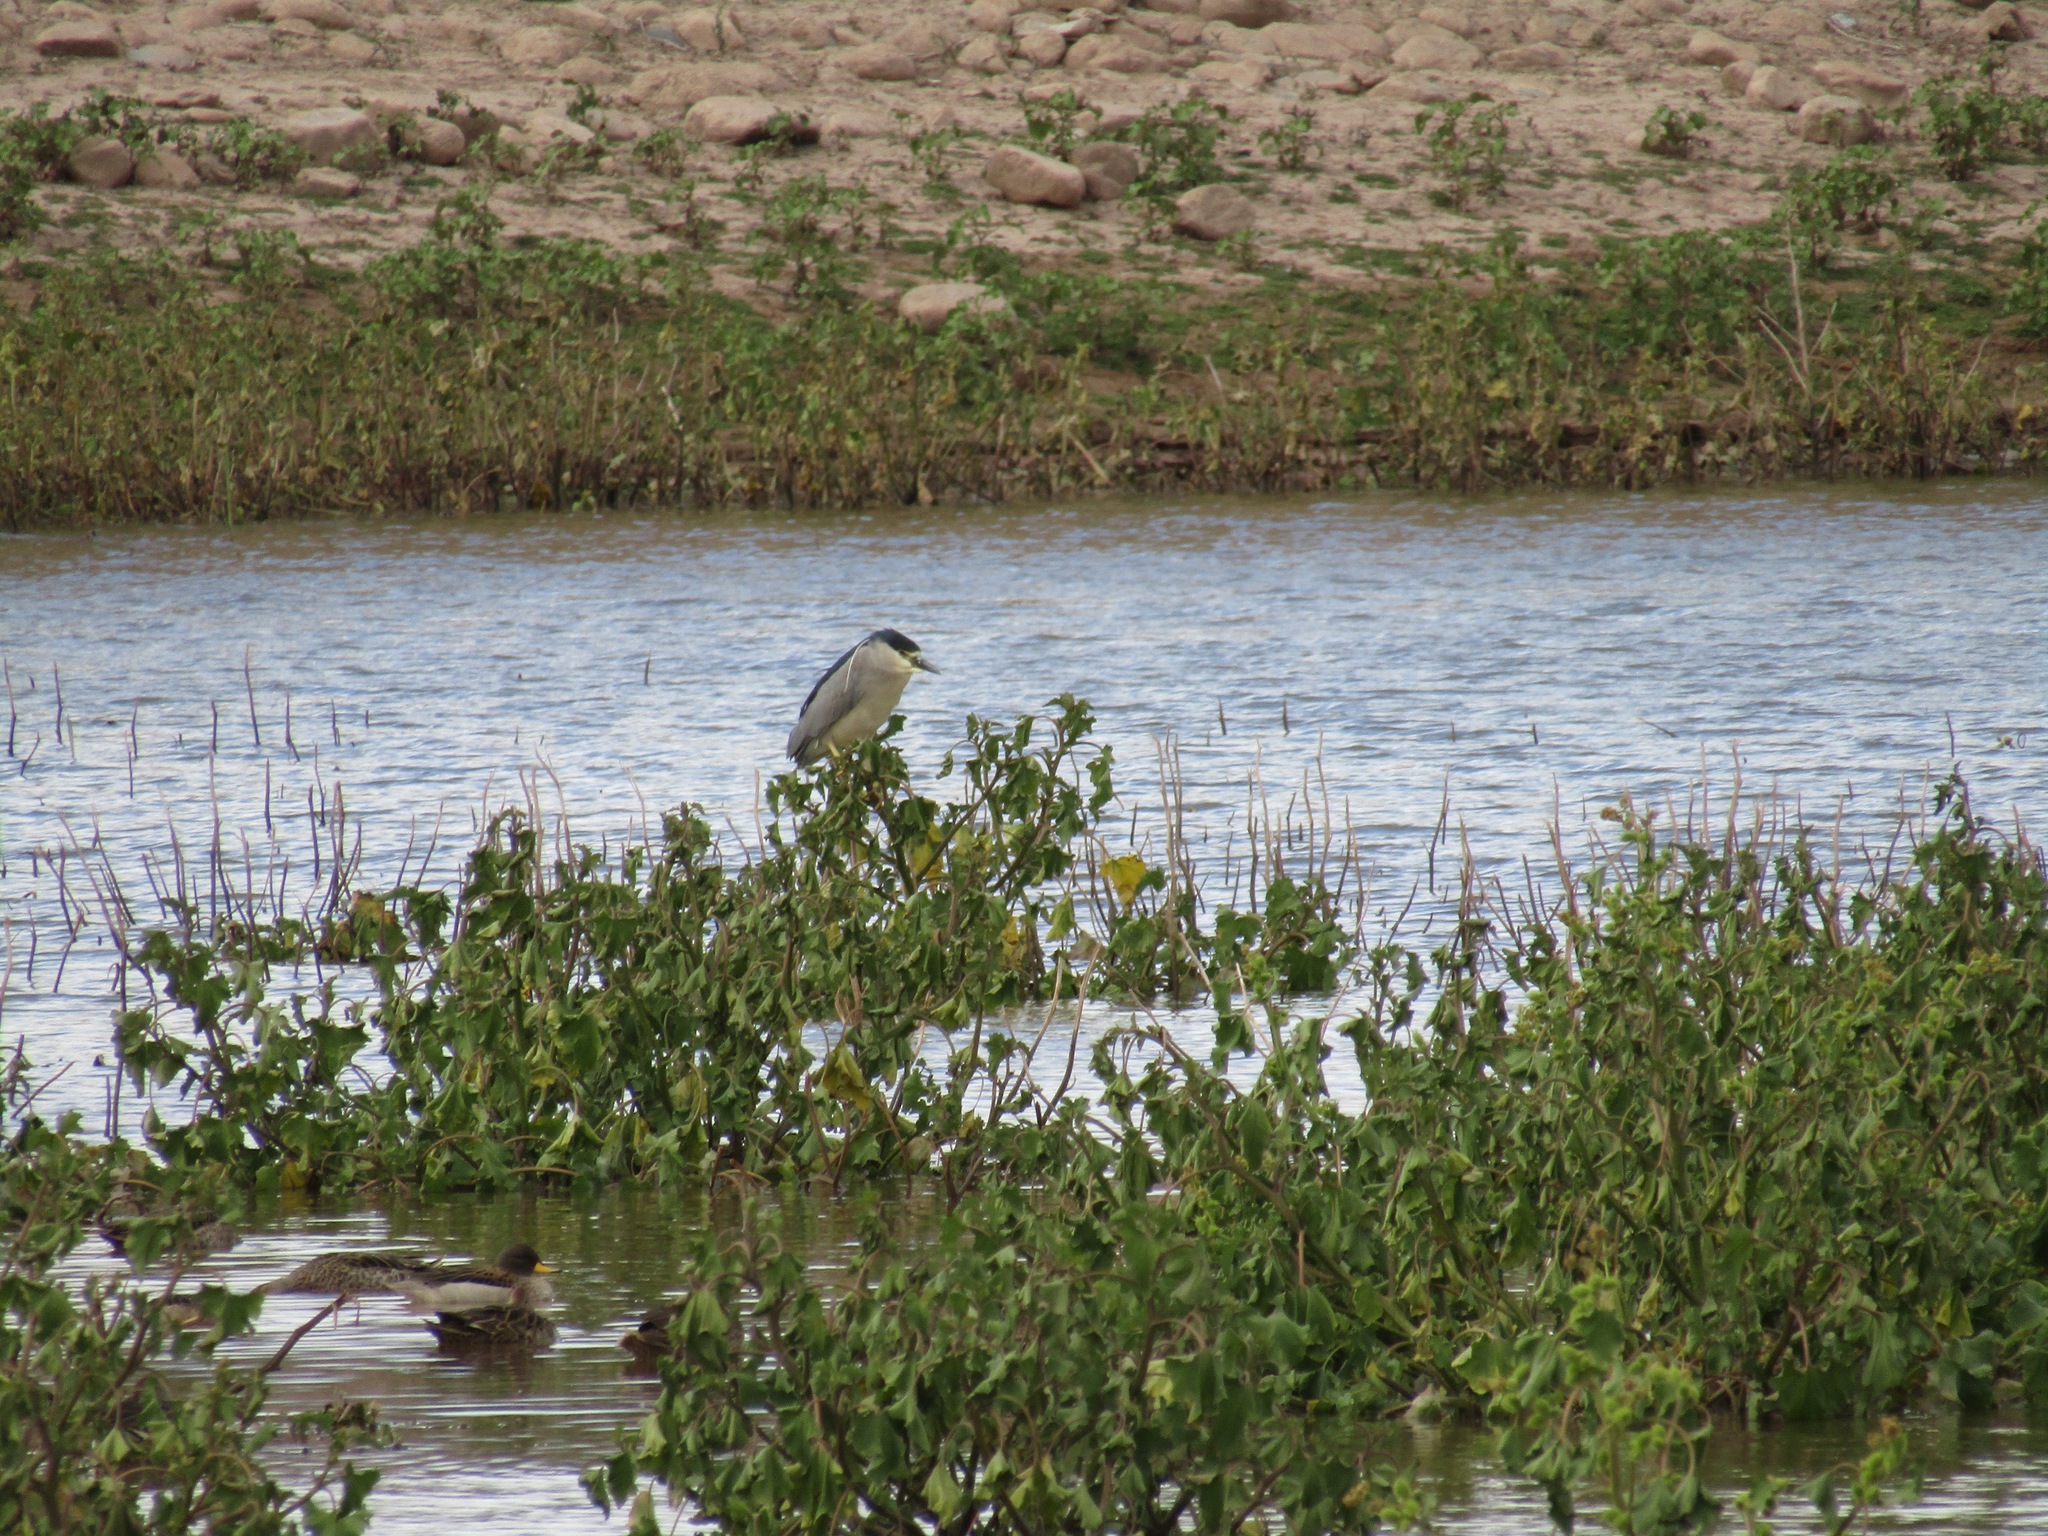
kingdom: Animalia
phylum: Chordata
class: Aves
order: Pelecaniformes
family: Ardeidae
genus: Nycticorax
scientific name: Nycticorax nycticorax
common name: Black-crowned night heron
